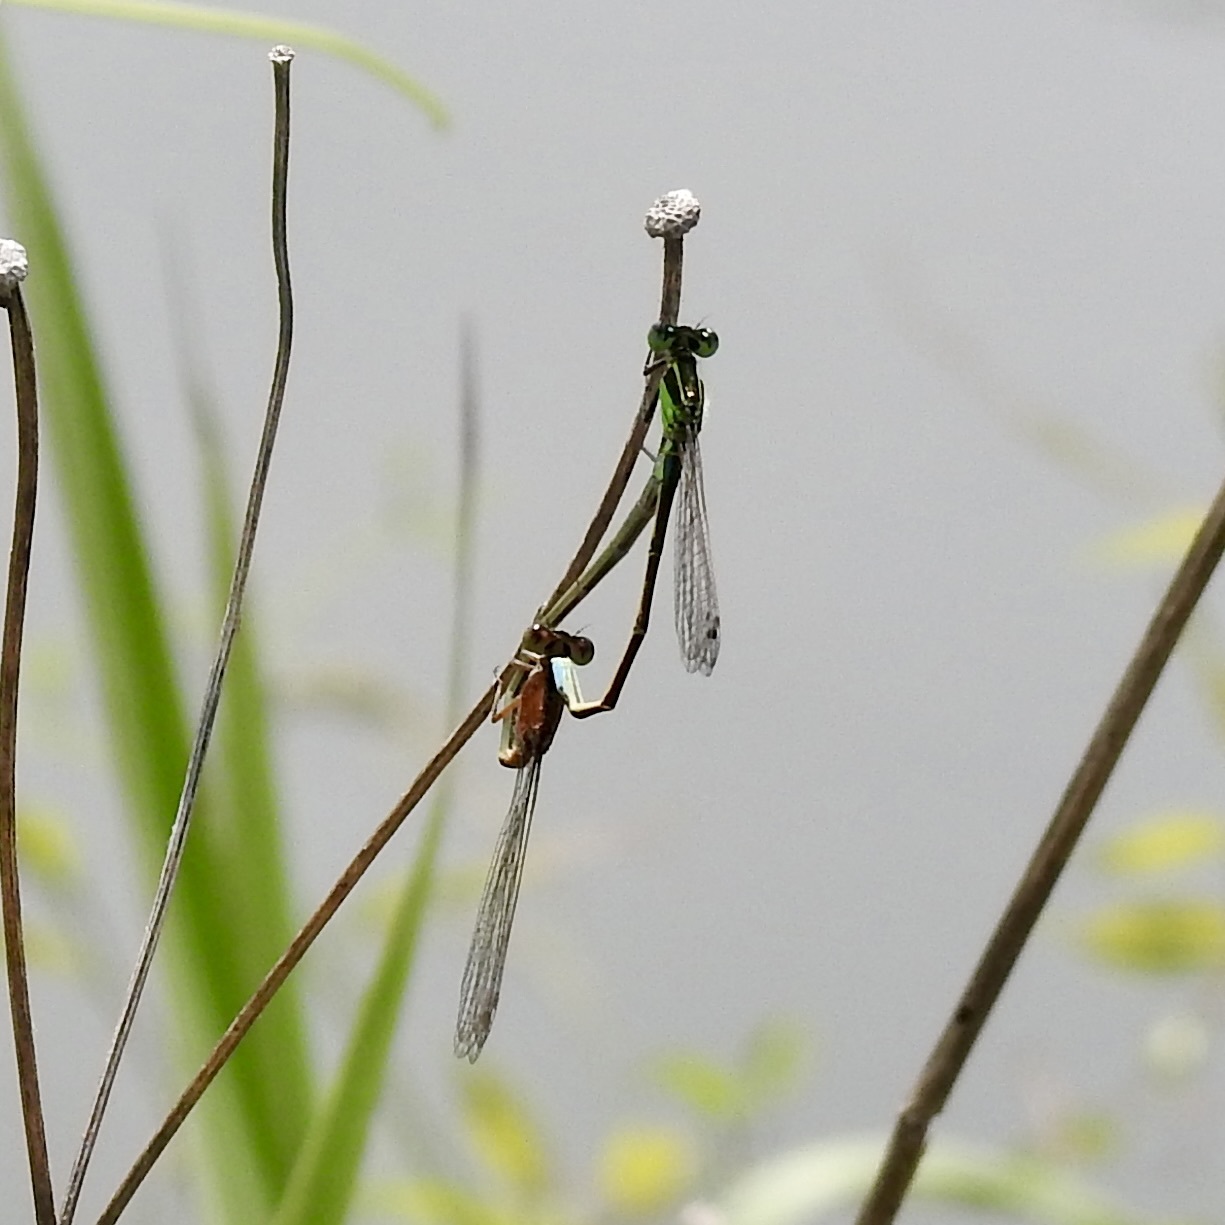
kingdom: Animalia
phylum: Arthropoda
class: Insecta
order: Odonata
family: Coenagrionidae
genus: Ischnura
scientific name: Ischnura ramburii
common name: Rambur's forktail
